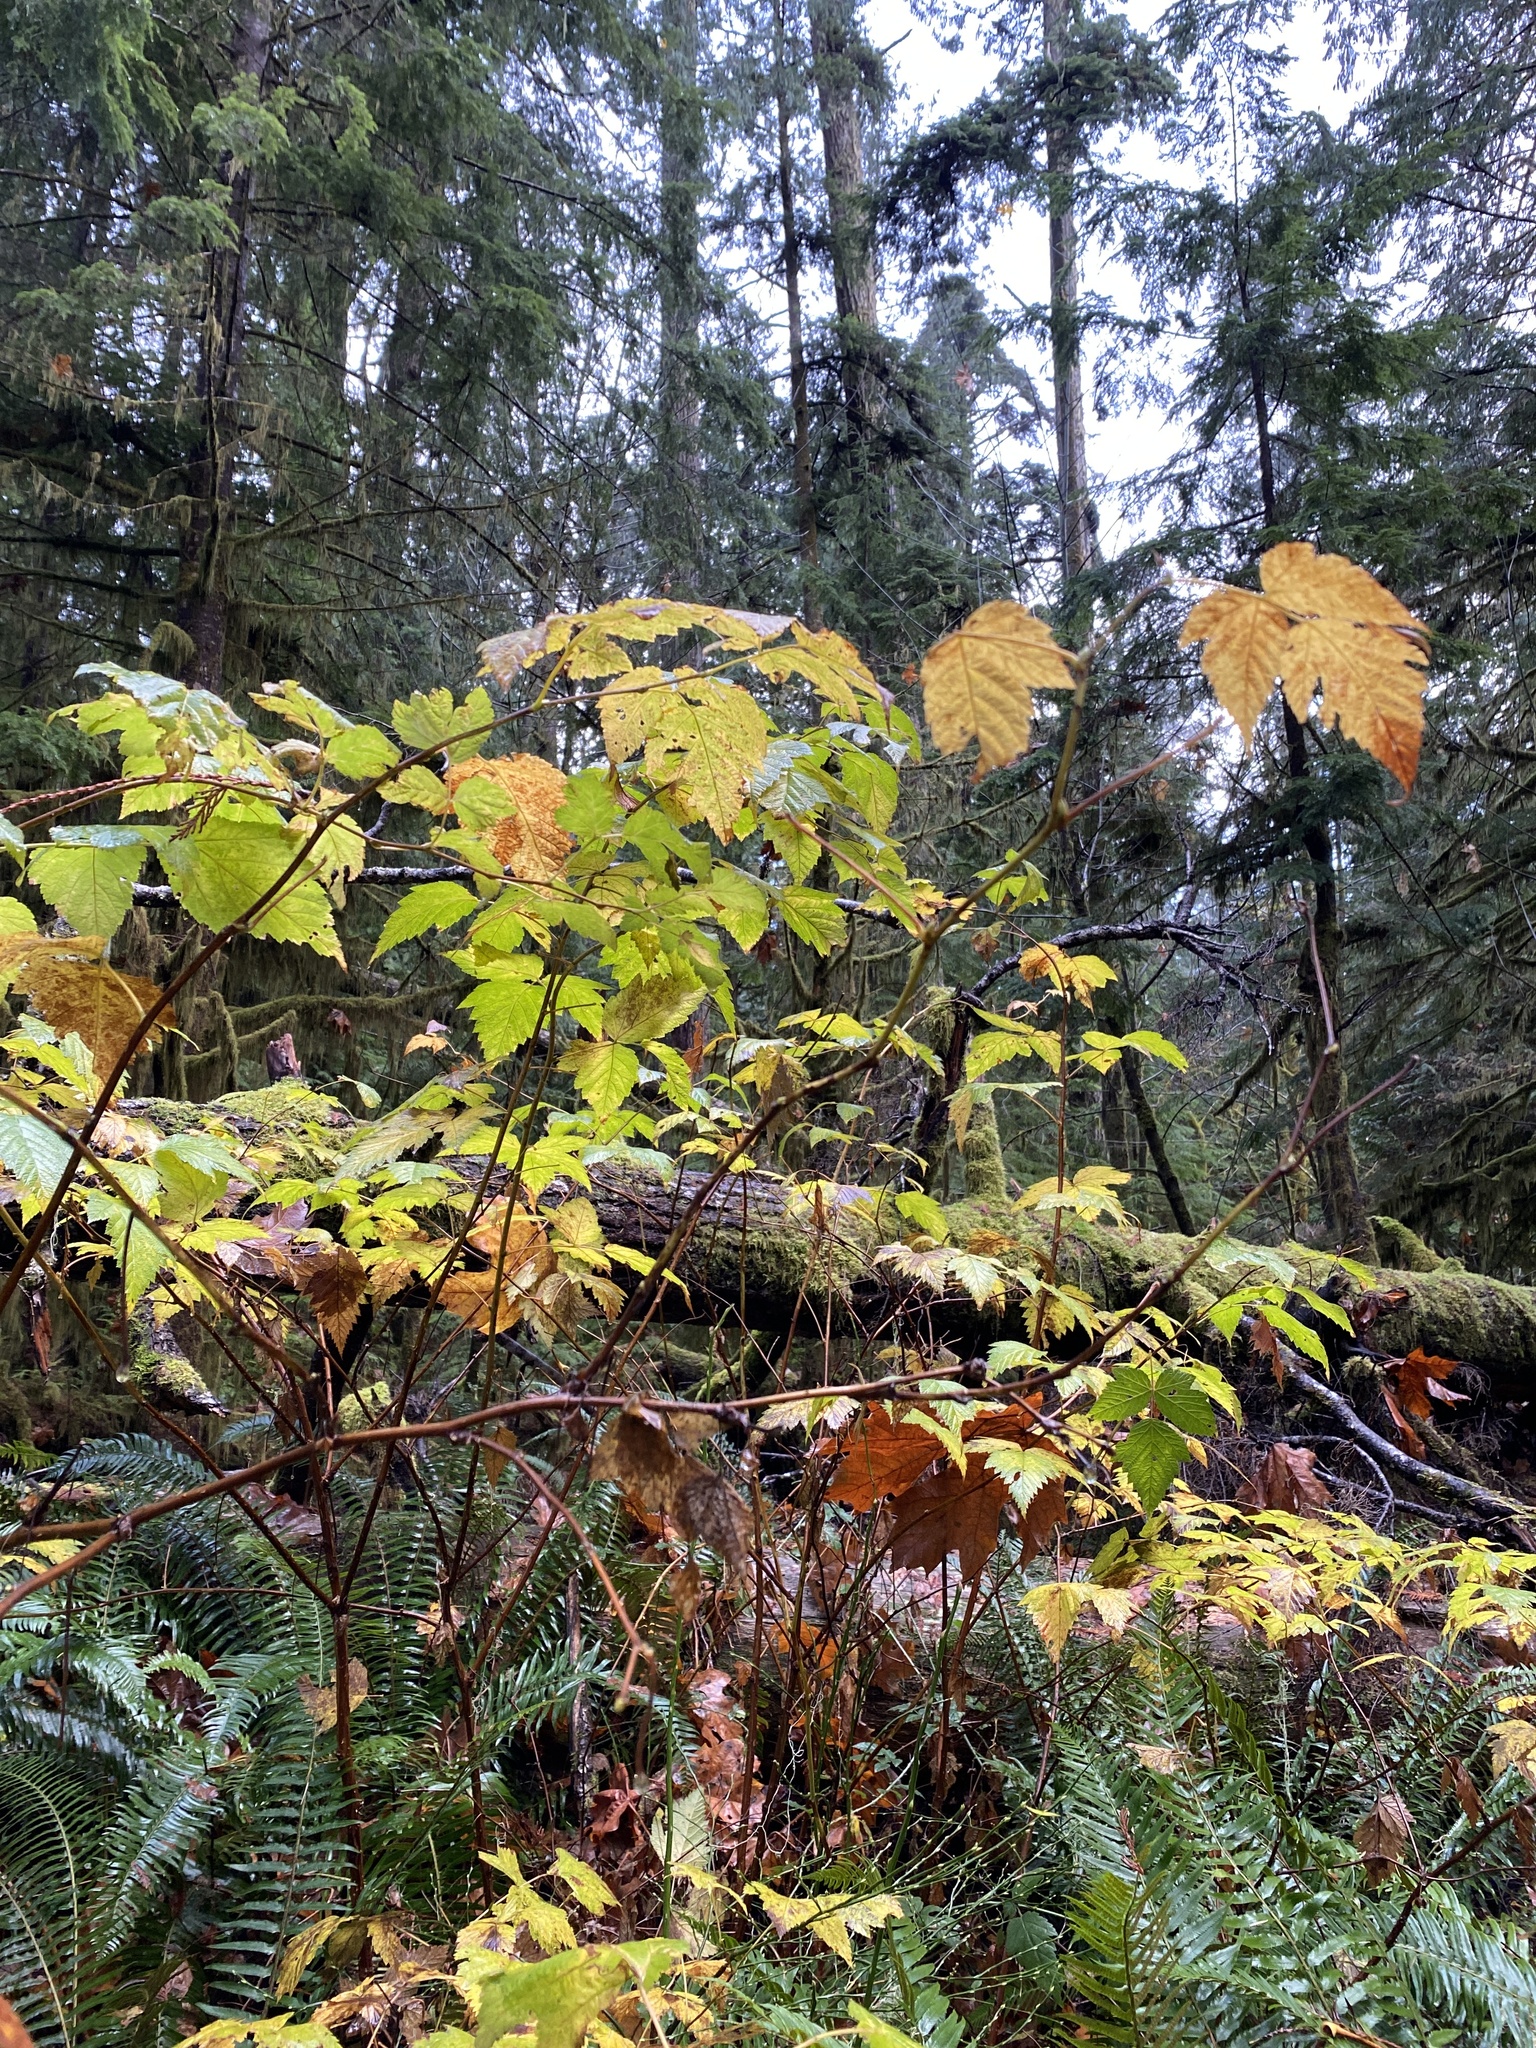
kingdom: Plantae
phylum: Tracheophyta
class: Magnoliopsida
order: Rosales
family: Rosaceae
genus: Rubus
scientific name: Rubus spectabilis
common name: Salmonberry
